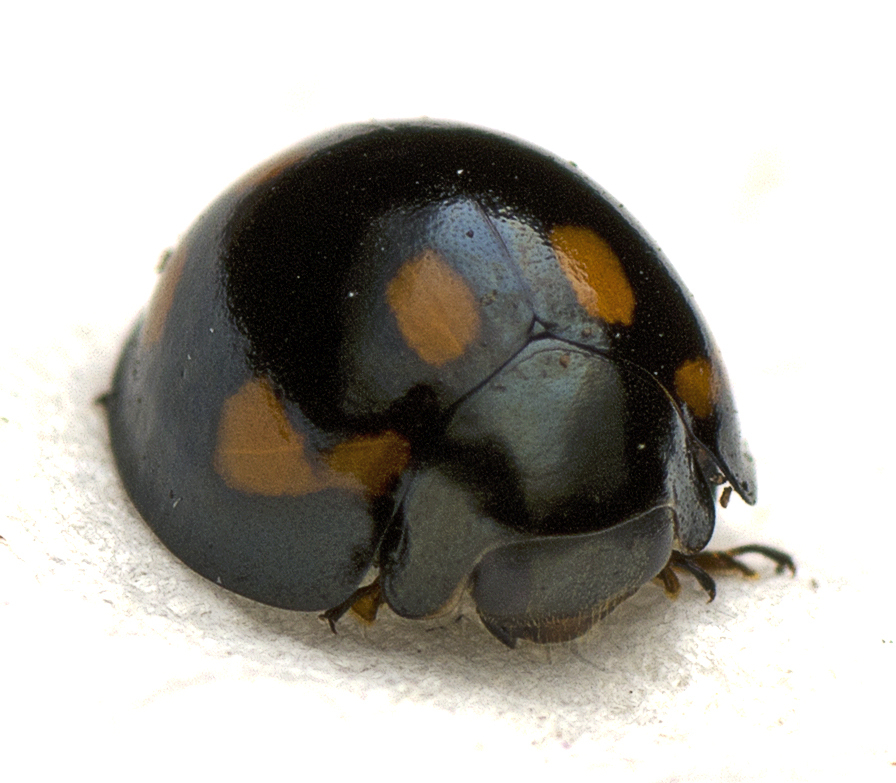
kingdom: Animalia
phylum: Arthropoda
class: Insecta
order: Coleoptera
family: Coccinellidae
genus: Orcus
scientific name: Orcus australasiae
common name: Lady beetle
